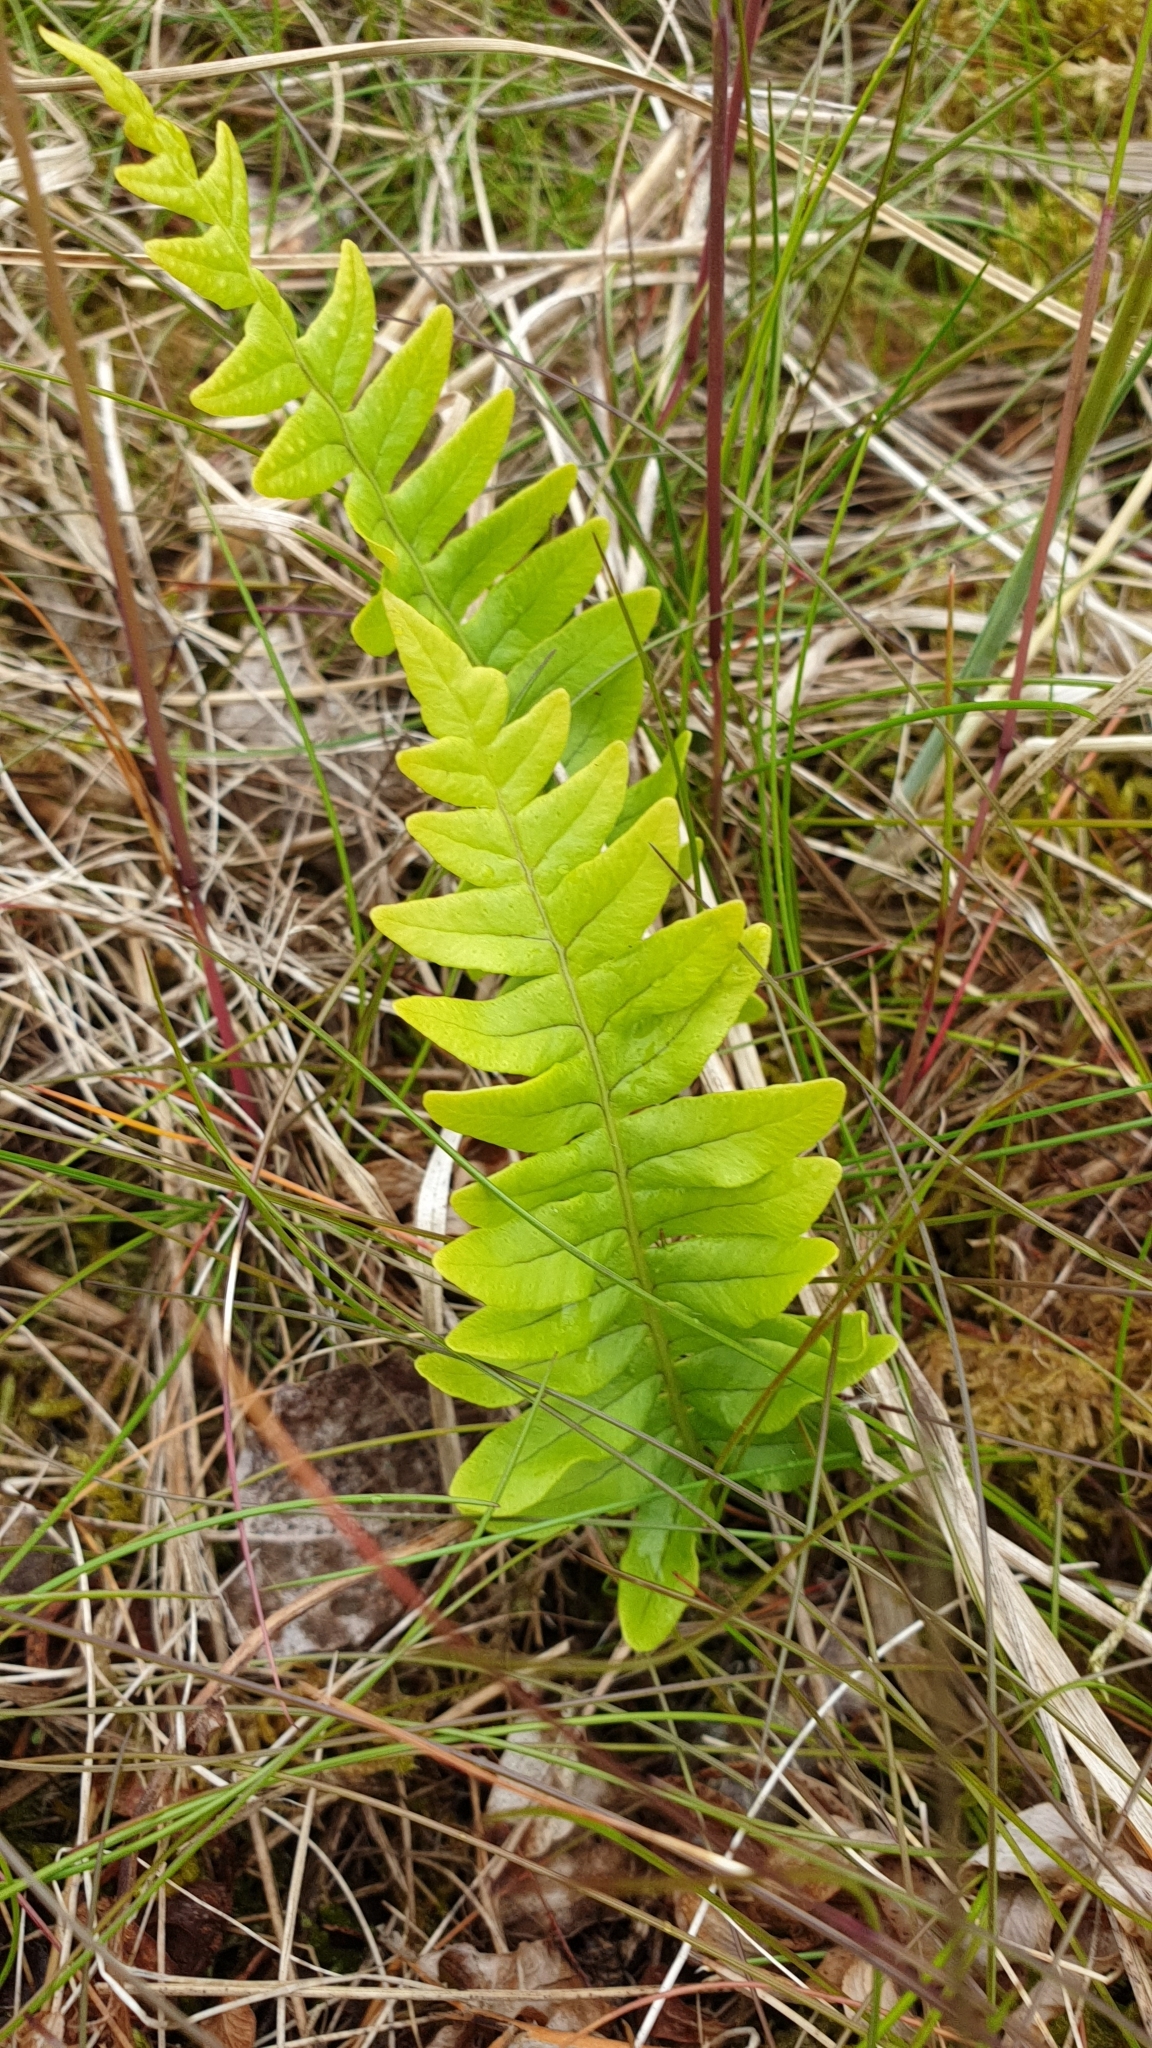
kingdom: Plantae
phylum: Tracheophyta
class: Polypodiopsida
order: Polypodiales
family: Polypodiaceae
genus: Polypodium
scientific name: Polypodium vulgare
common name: Common polypody
